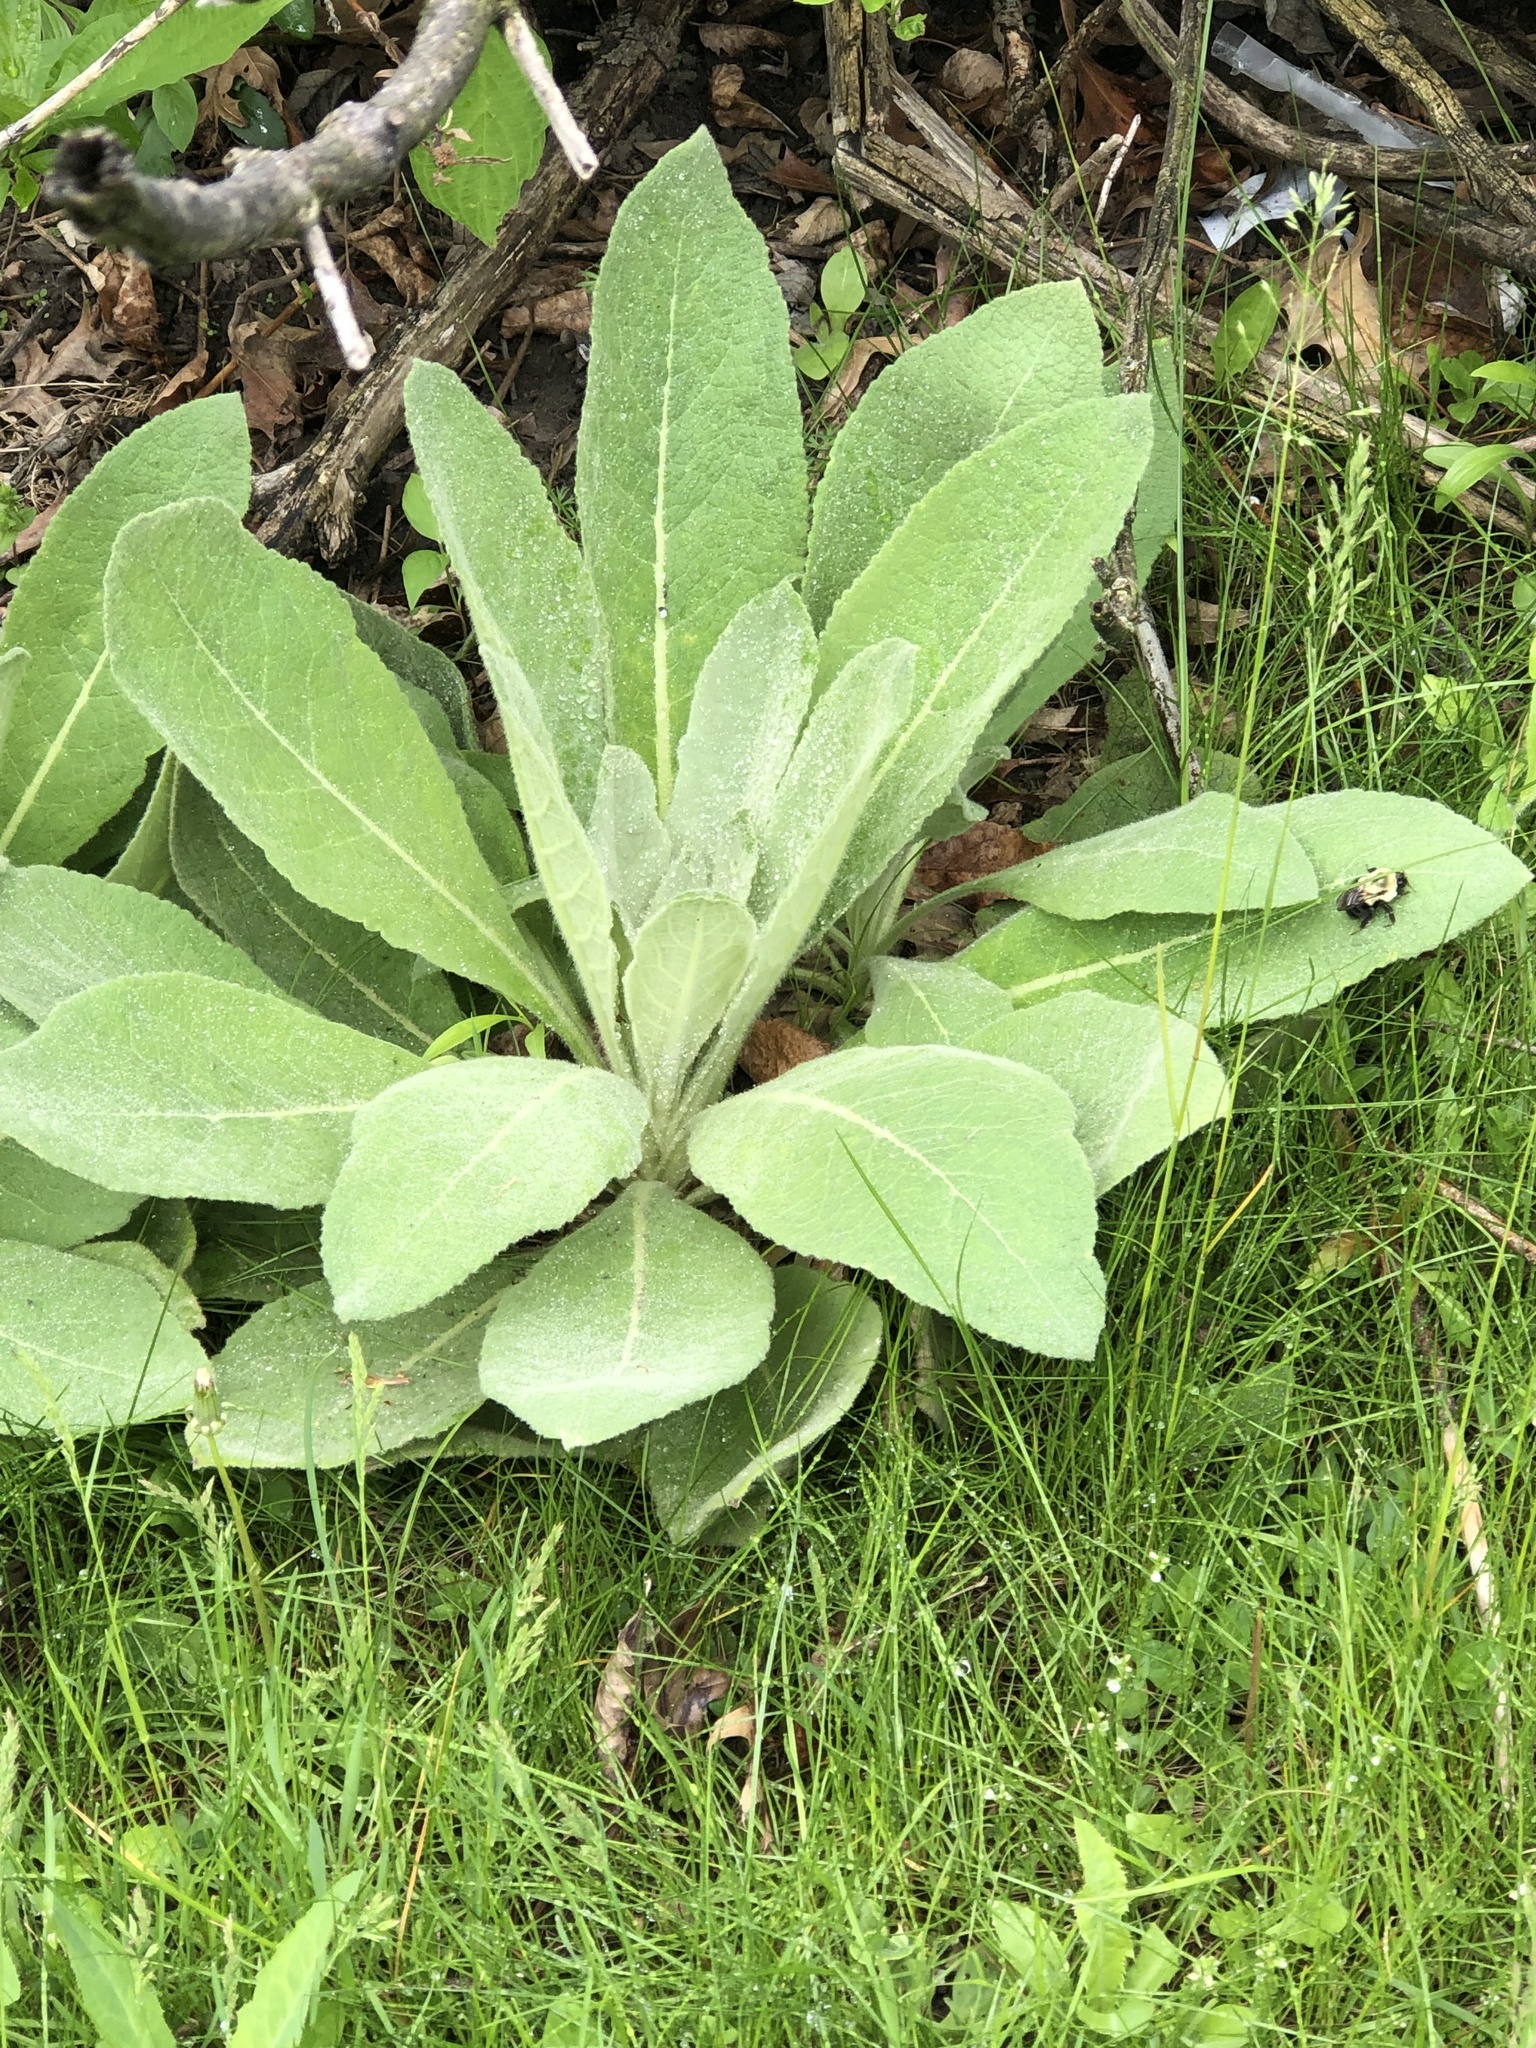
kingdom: Plantae
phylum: Tracheophyta
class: Magnoliopsida
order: Lamiales
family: Scrophulariaceae
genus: Verbascum
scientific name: Verbascum thapsus
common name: Common mullein
